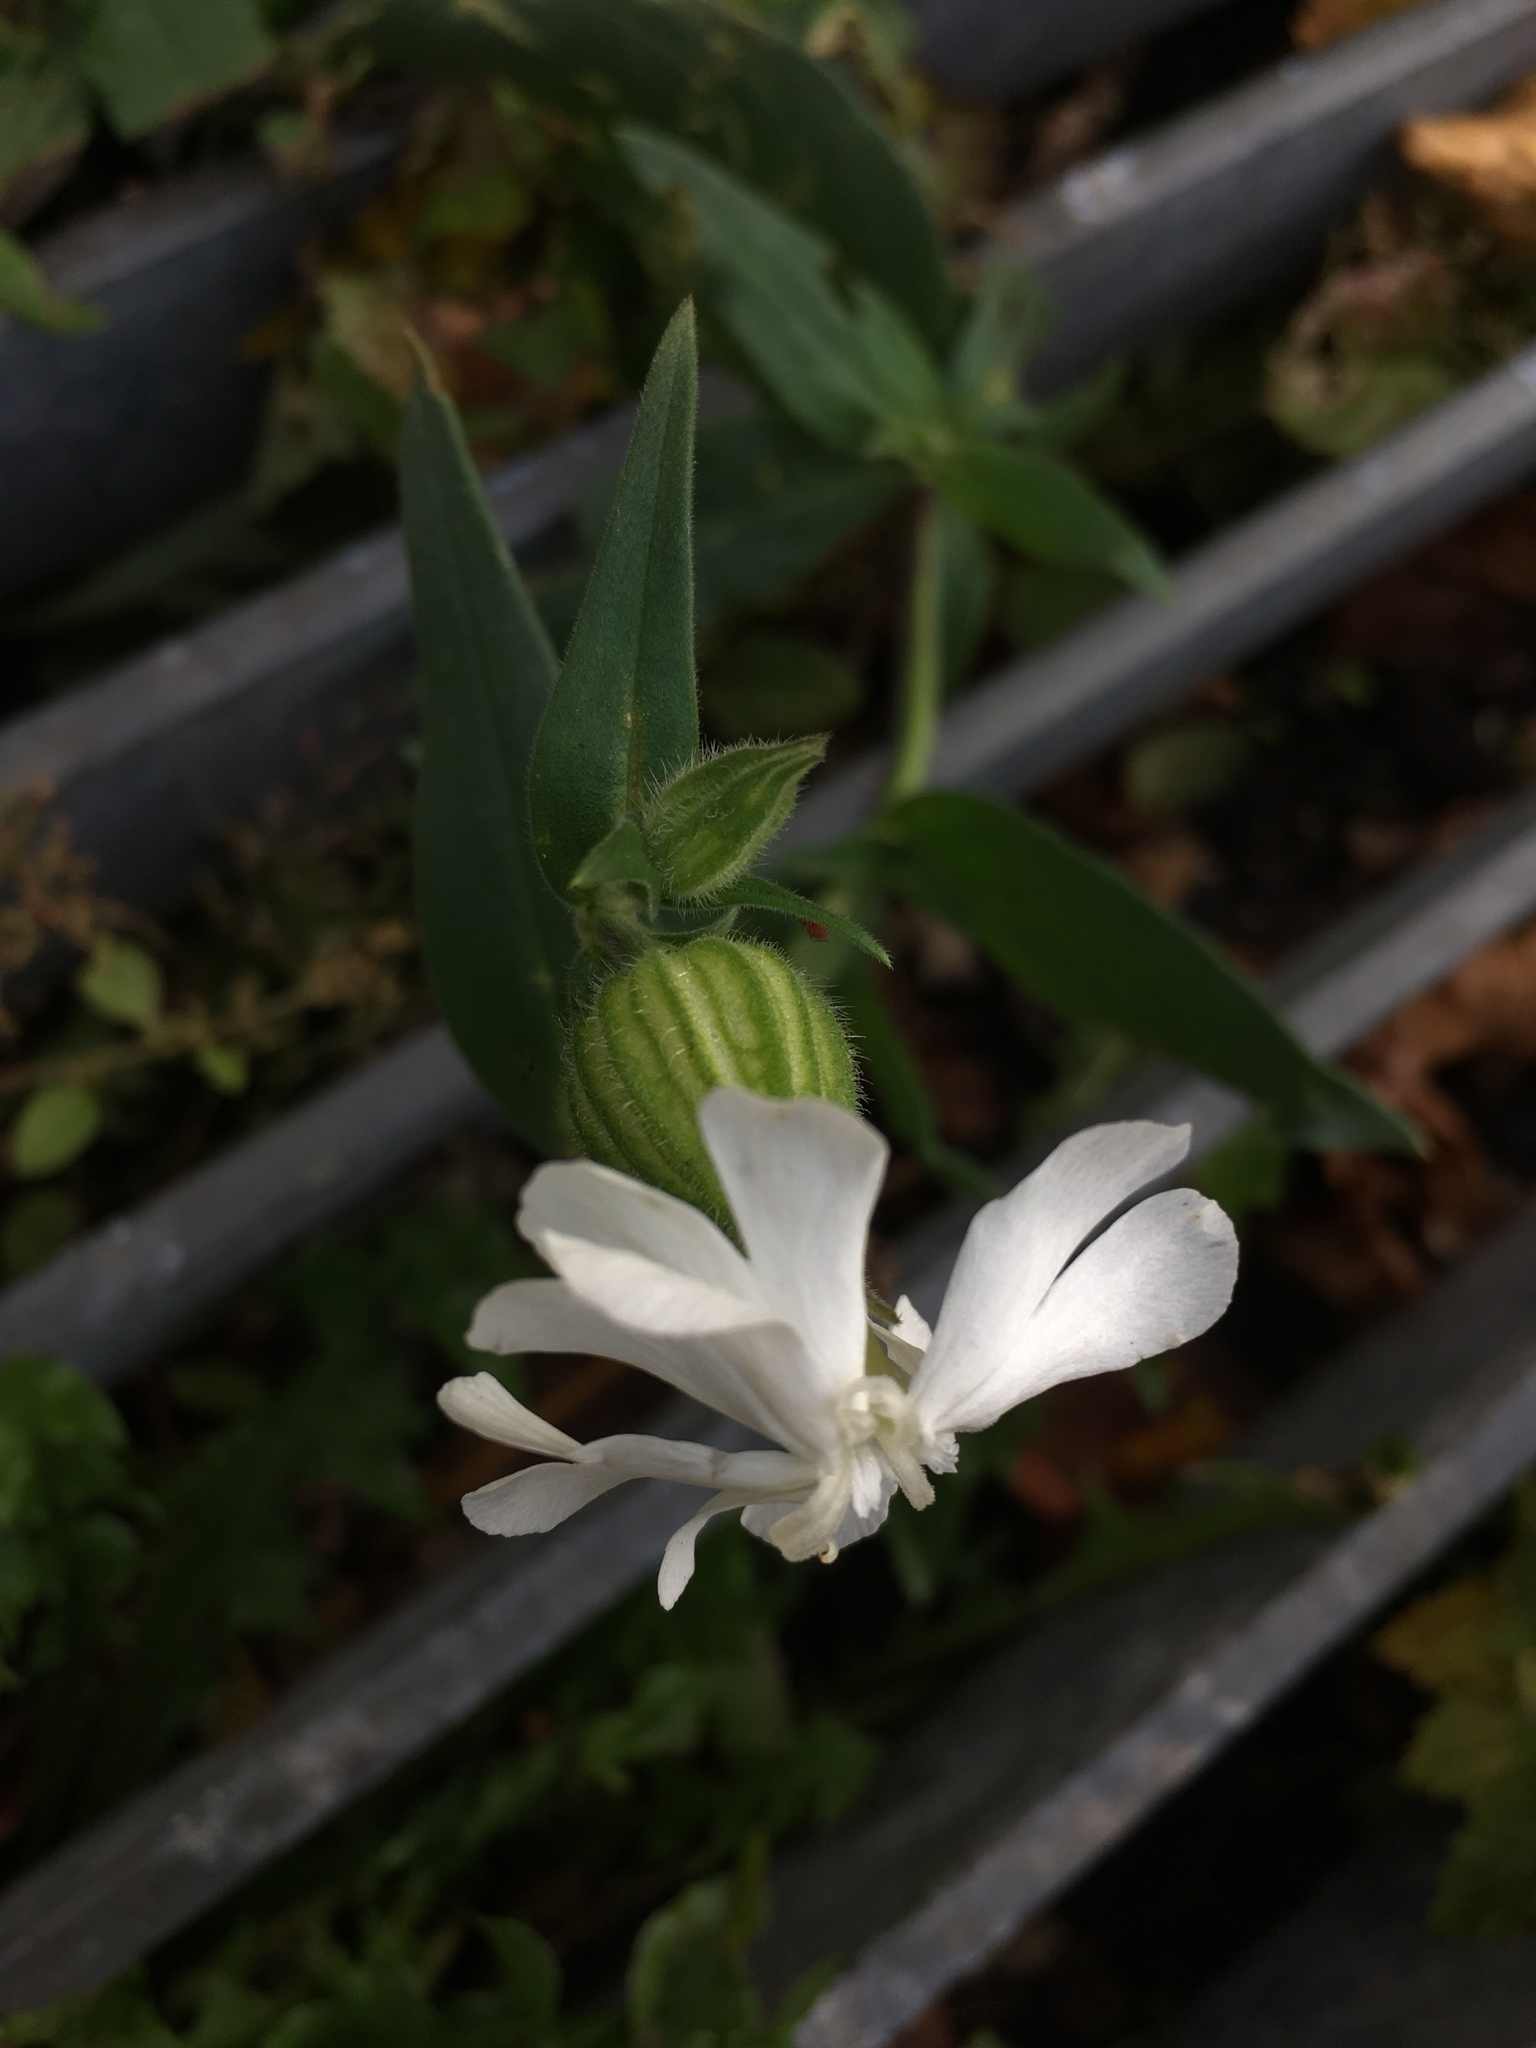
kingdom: Plantae
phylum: Tracheophyta
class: Magnoliopsida
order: Caryophyllales
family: Caryophyllaceae
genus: Silene
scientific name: Silene latifolia
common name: White campion
